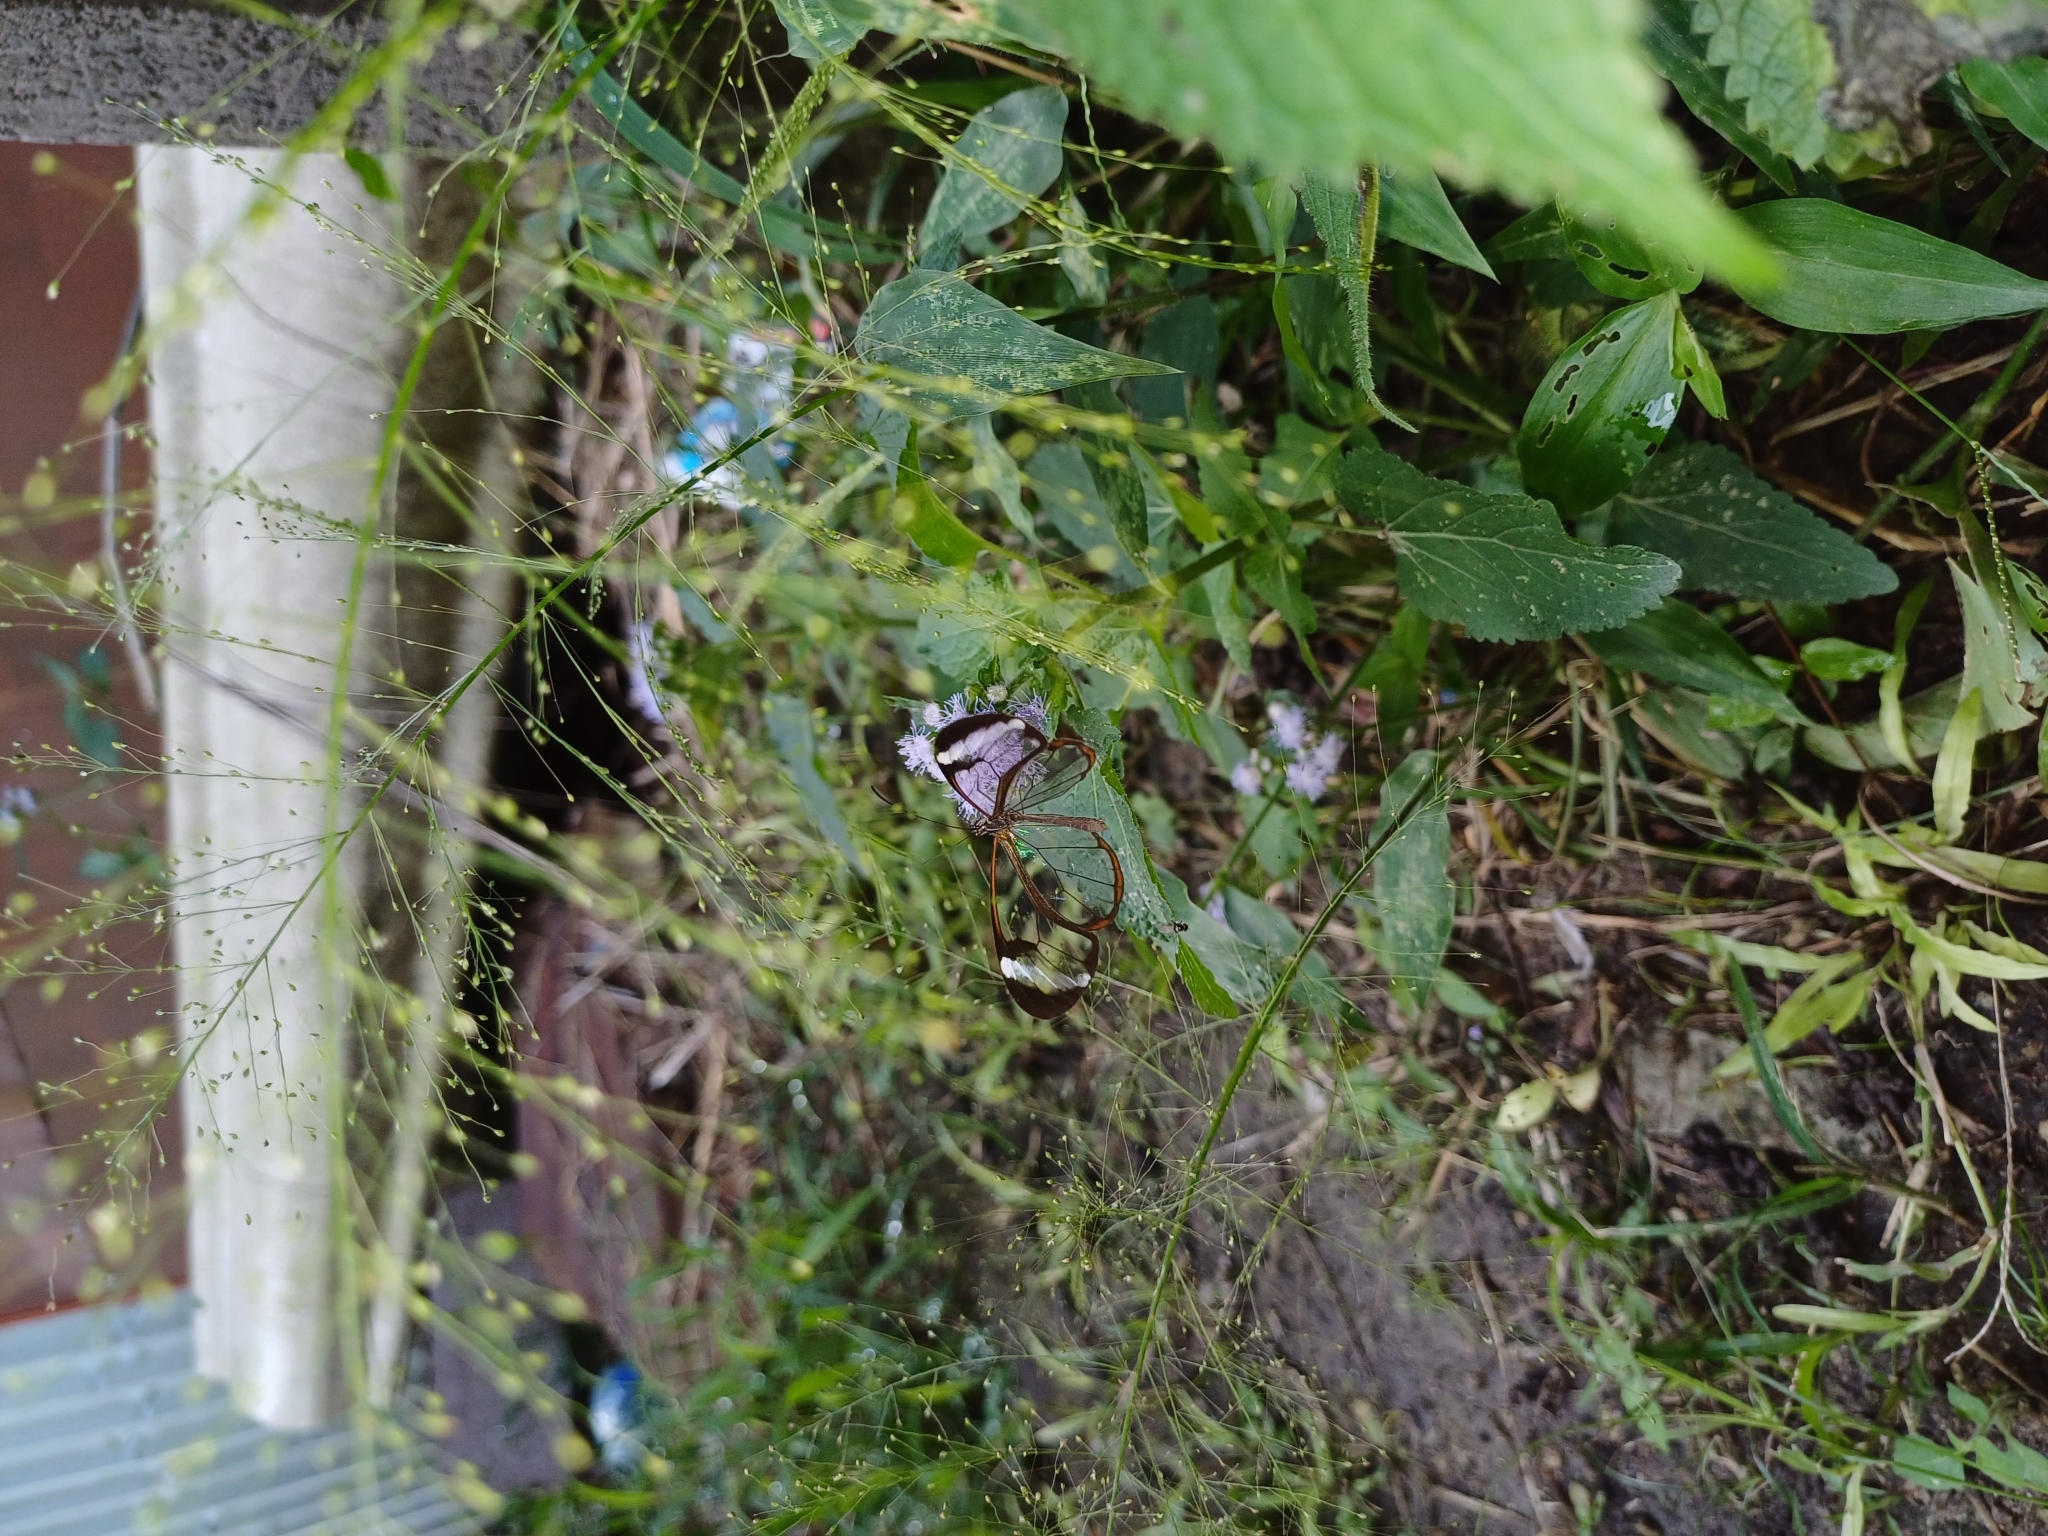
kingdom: Animalia
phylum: Arthropoda
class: Insecta
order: Lepidoptera
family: Nymphalidae
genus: Greta
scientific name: Greta morgane
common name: Thick-tipped greta
